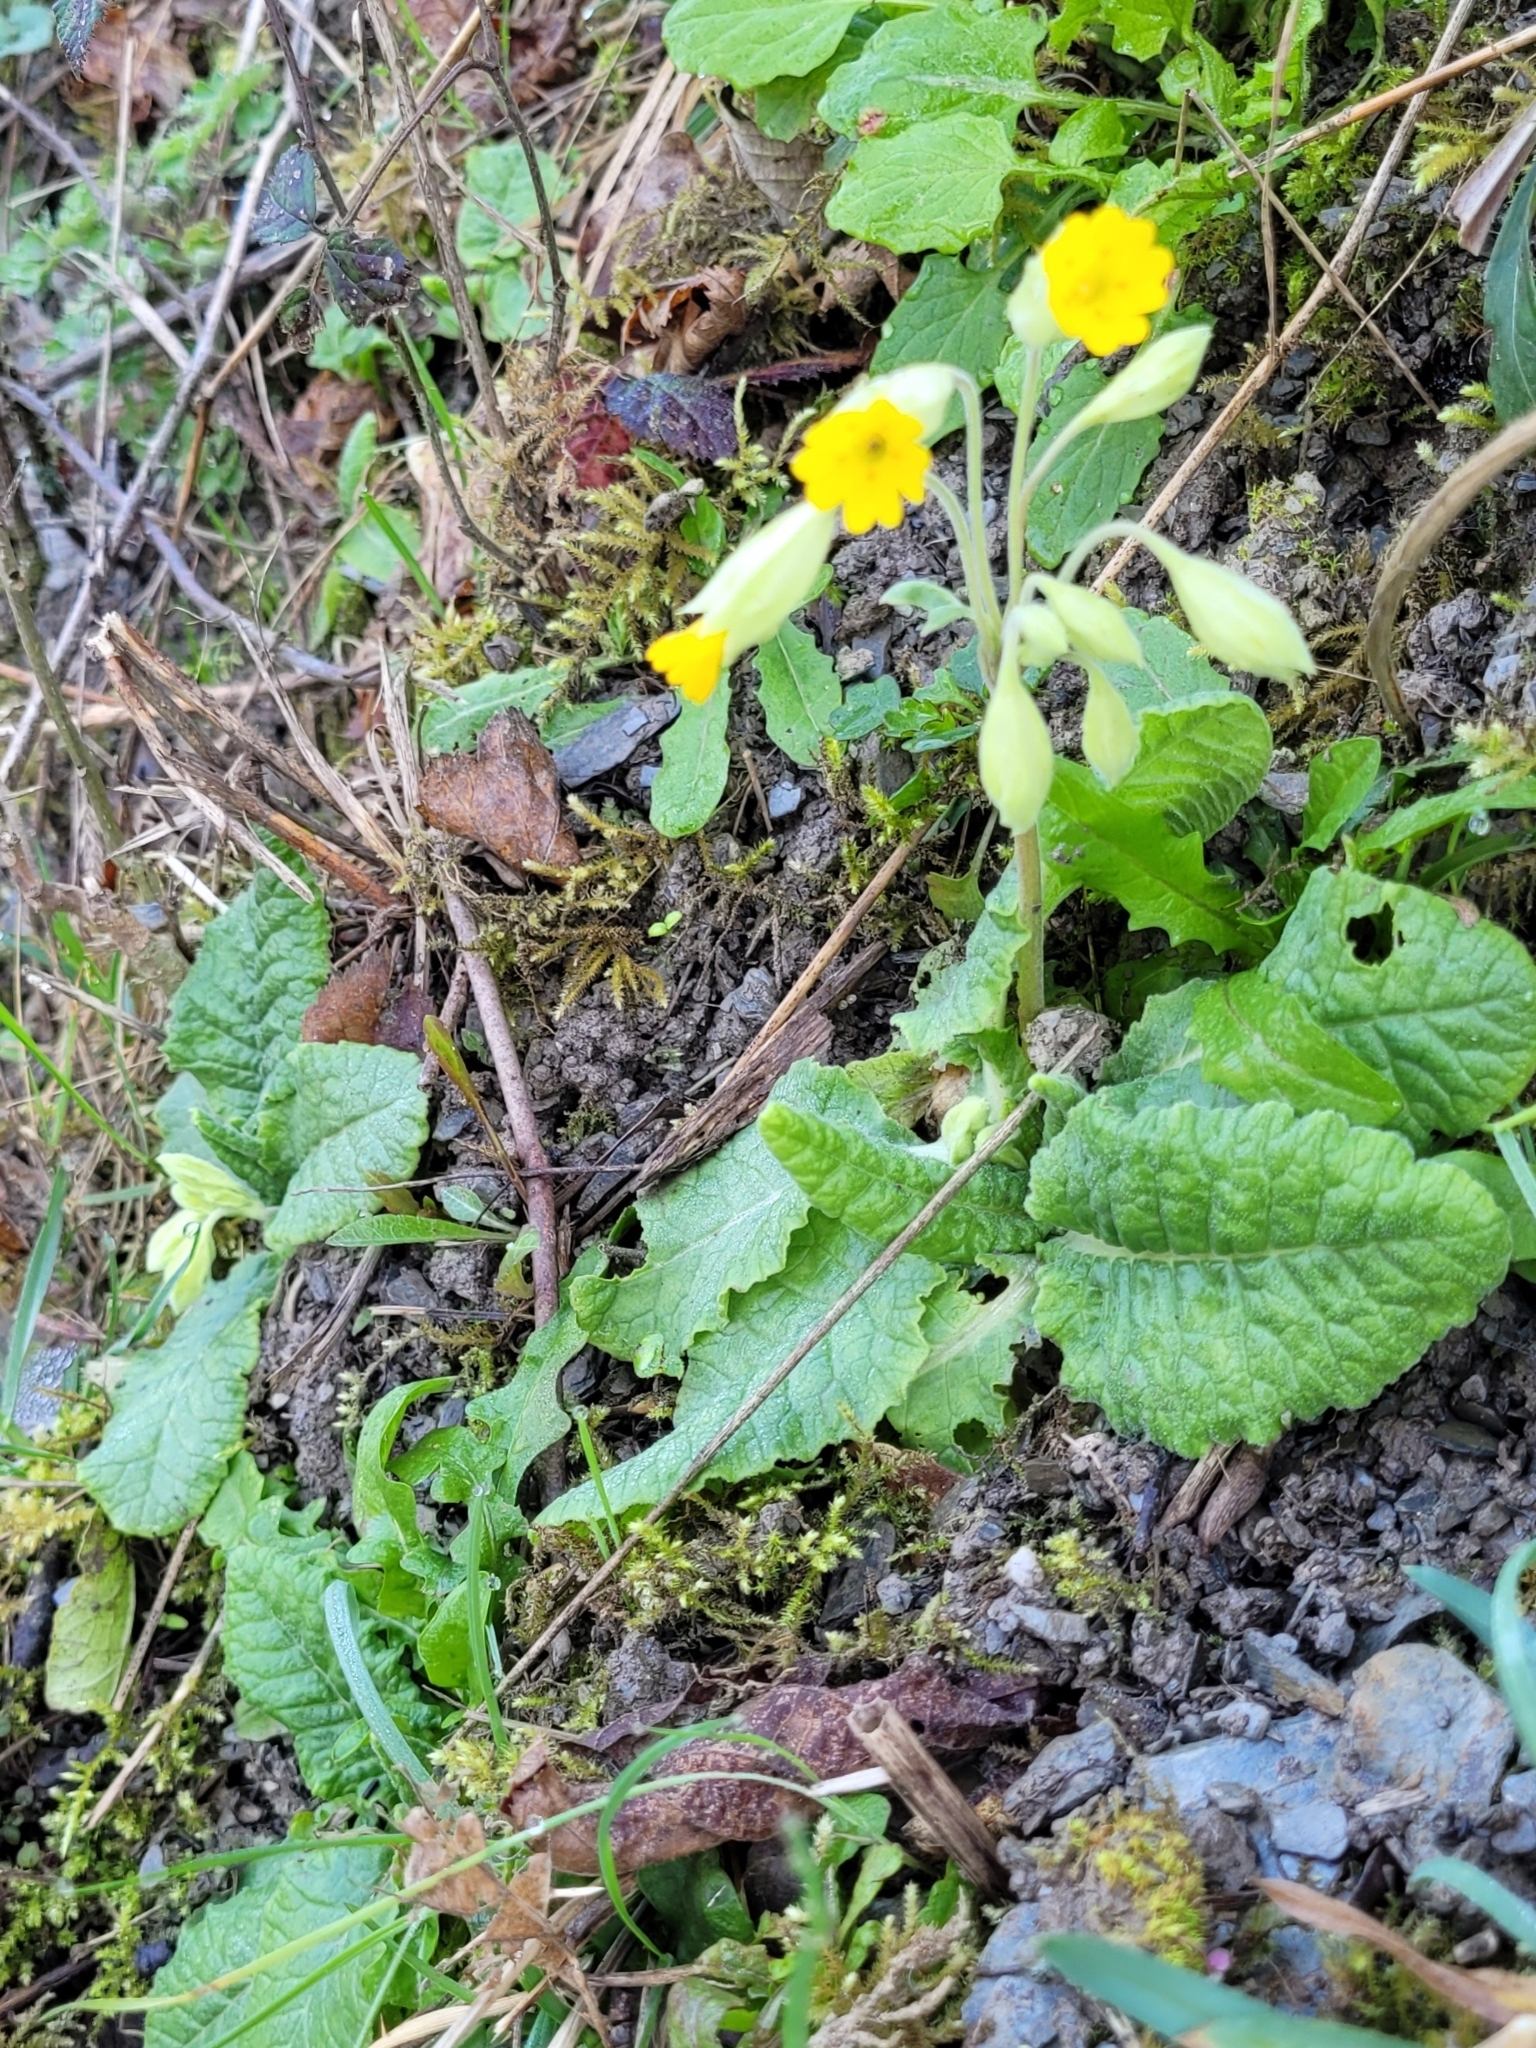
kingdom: Plantae
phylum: Tracheophyta
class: Magnoliopsida
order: Ericales
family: Primulaceae
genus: Primula
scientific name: Primula veris
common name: Cowslip
